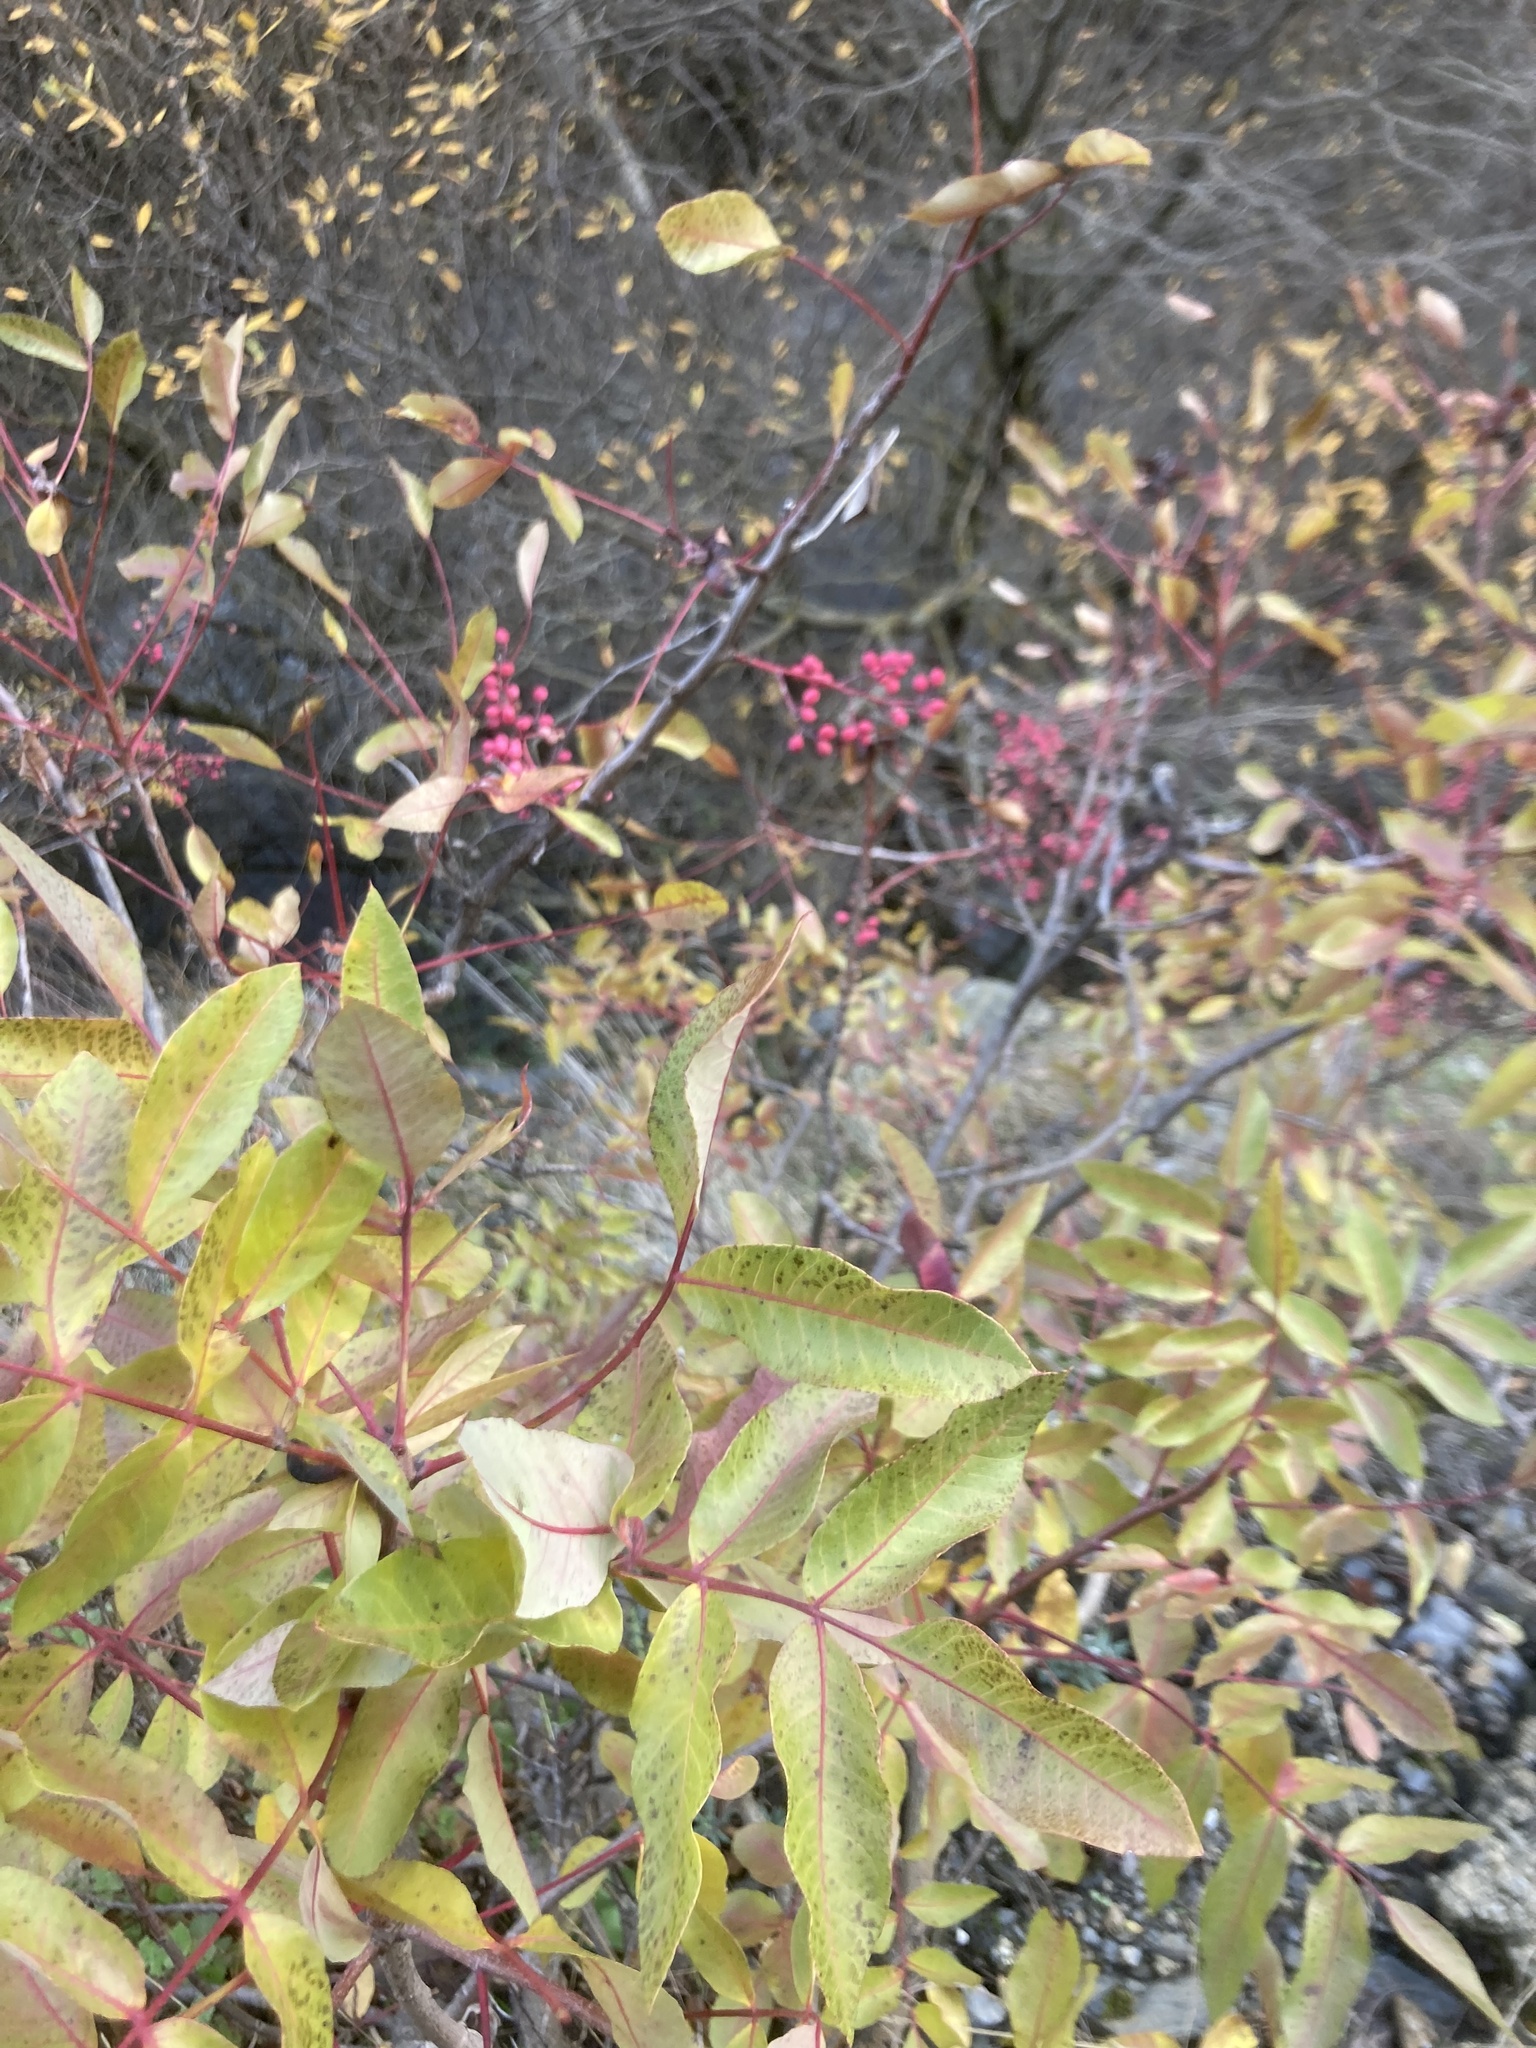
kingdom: Plantae
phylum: Tracheophyta
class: Magnoliopsida
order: Sapindales
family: Anacardiaceae
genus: Pistacia
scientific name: Pistacia terebinthus
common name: Terebinth
